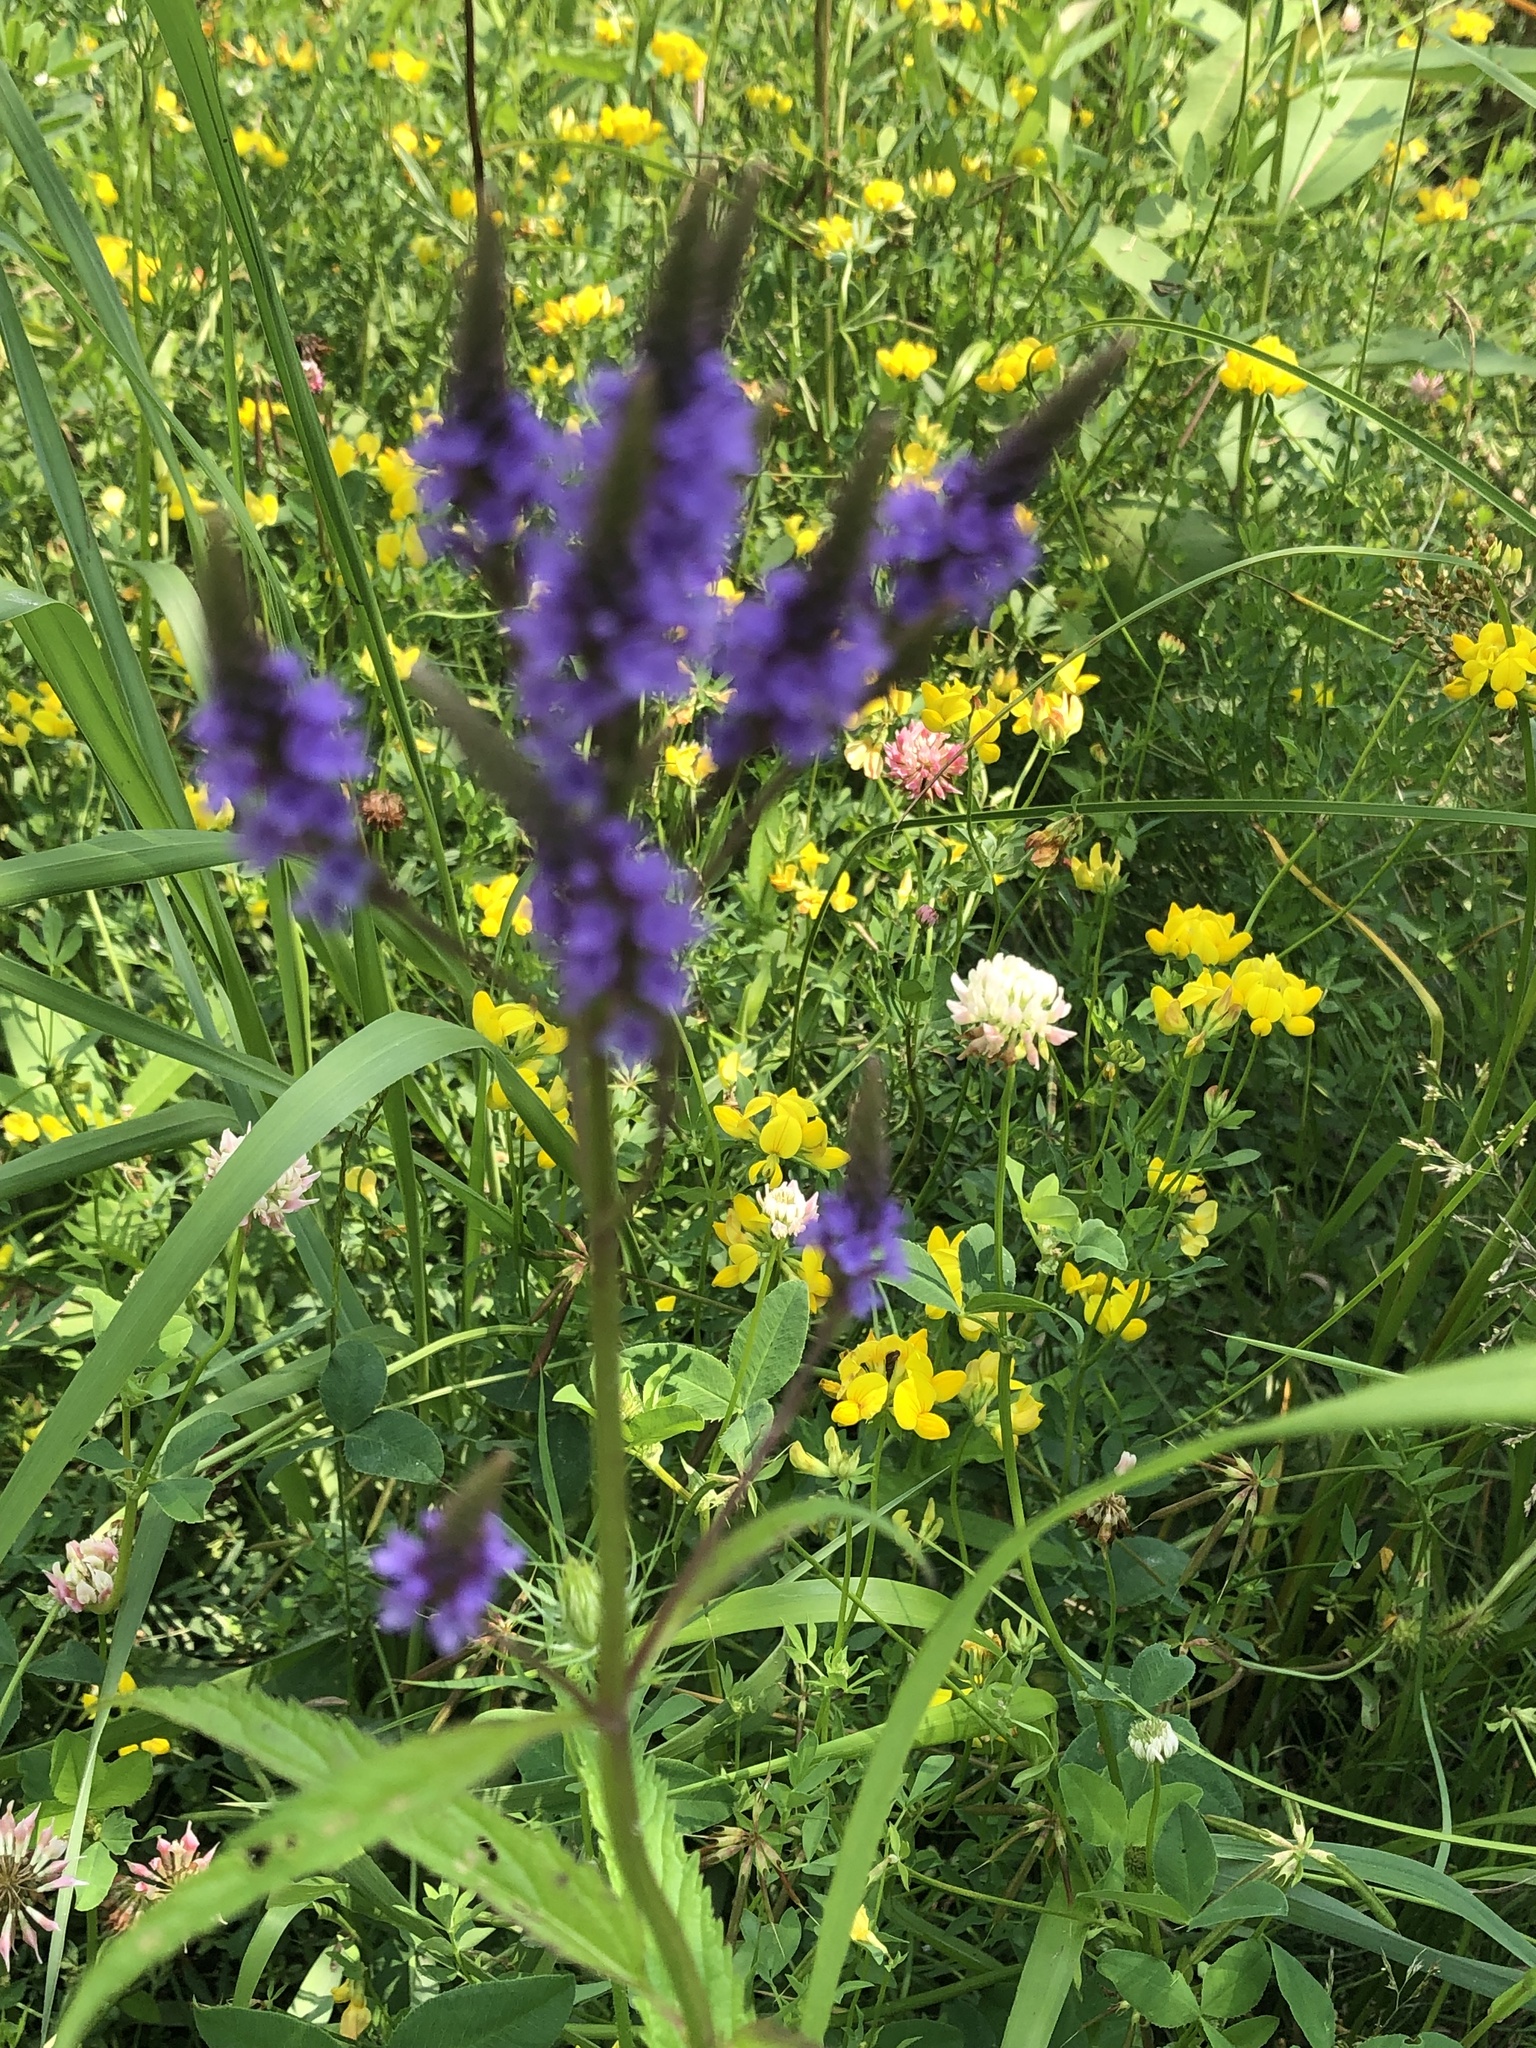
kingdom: Plantae
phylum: Tracheophyta
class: Magnoliopsida
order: Lamiales
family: Verbenaceae
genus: Verbena
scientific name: Verbena hastata
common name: American blue vervain
